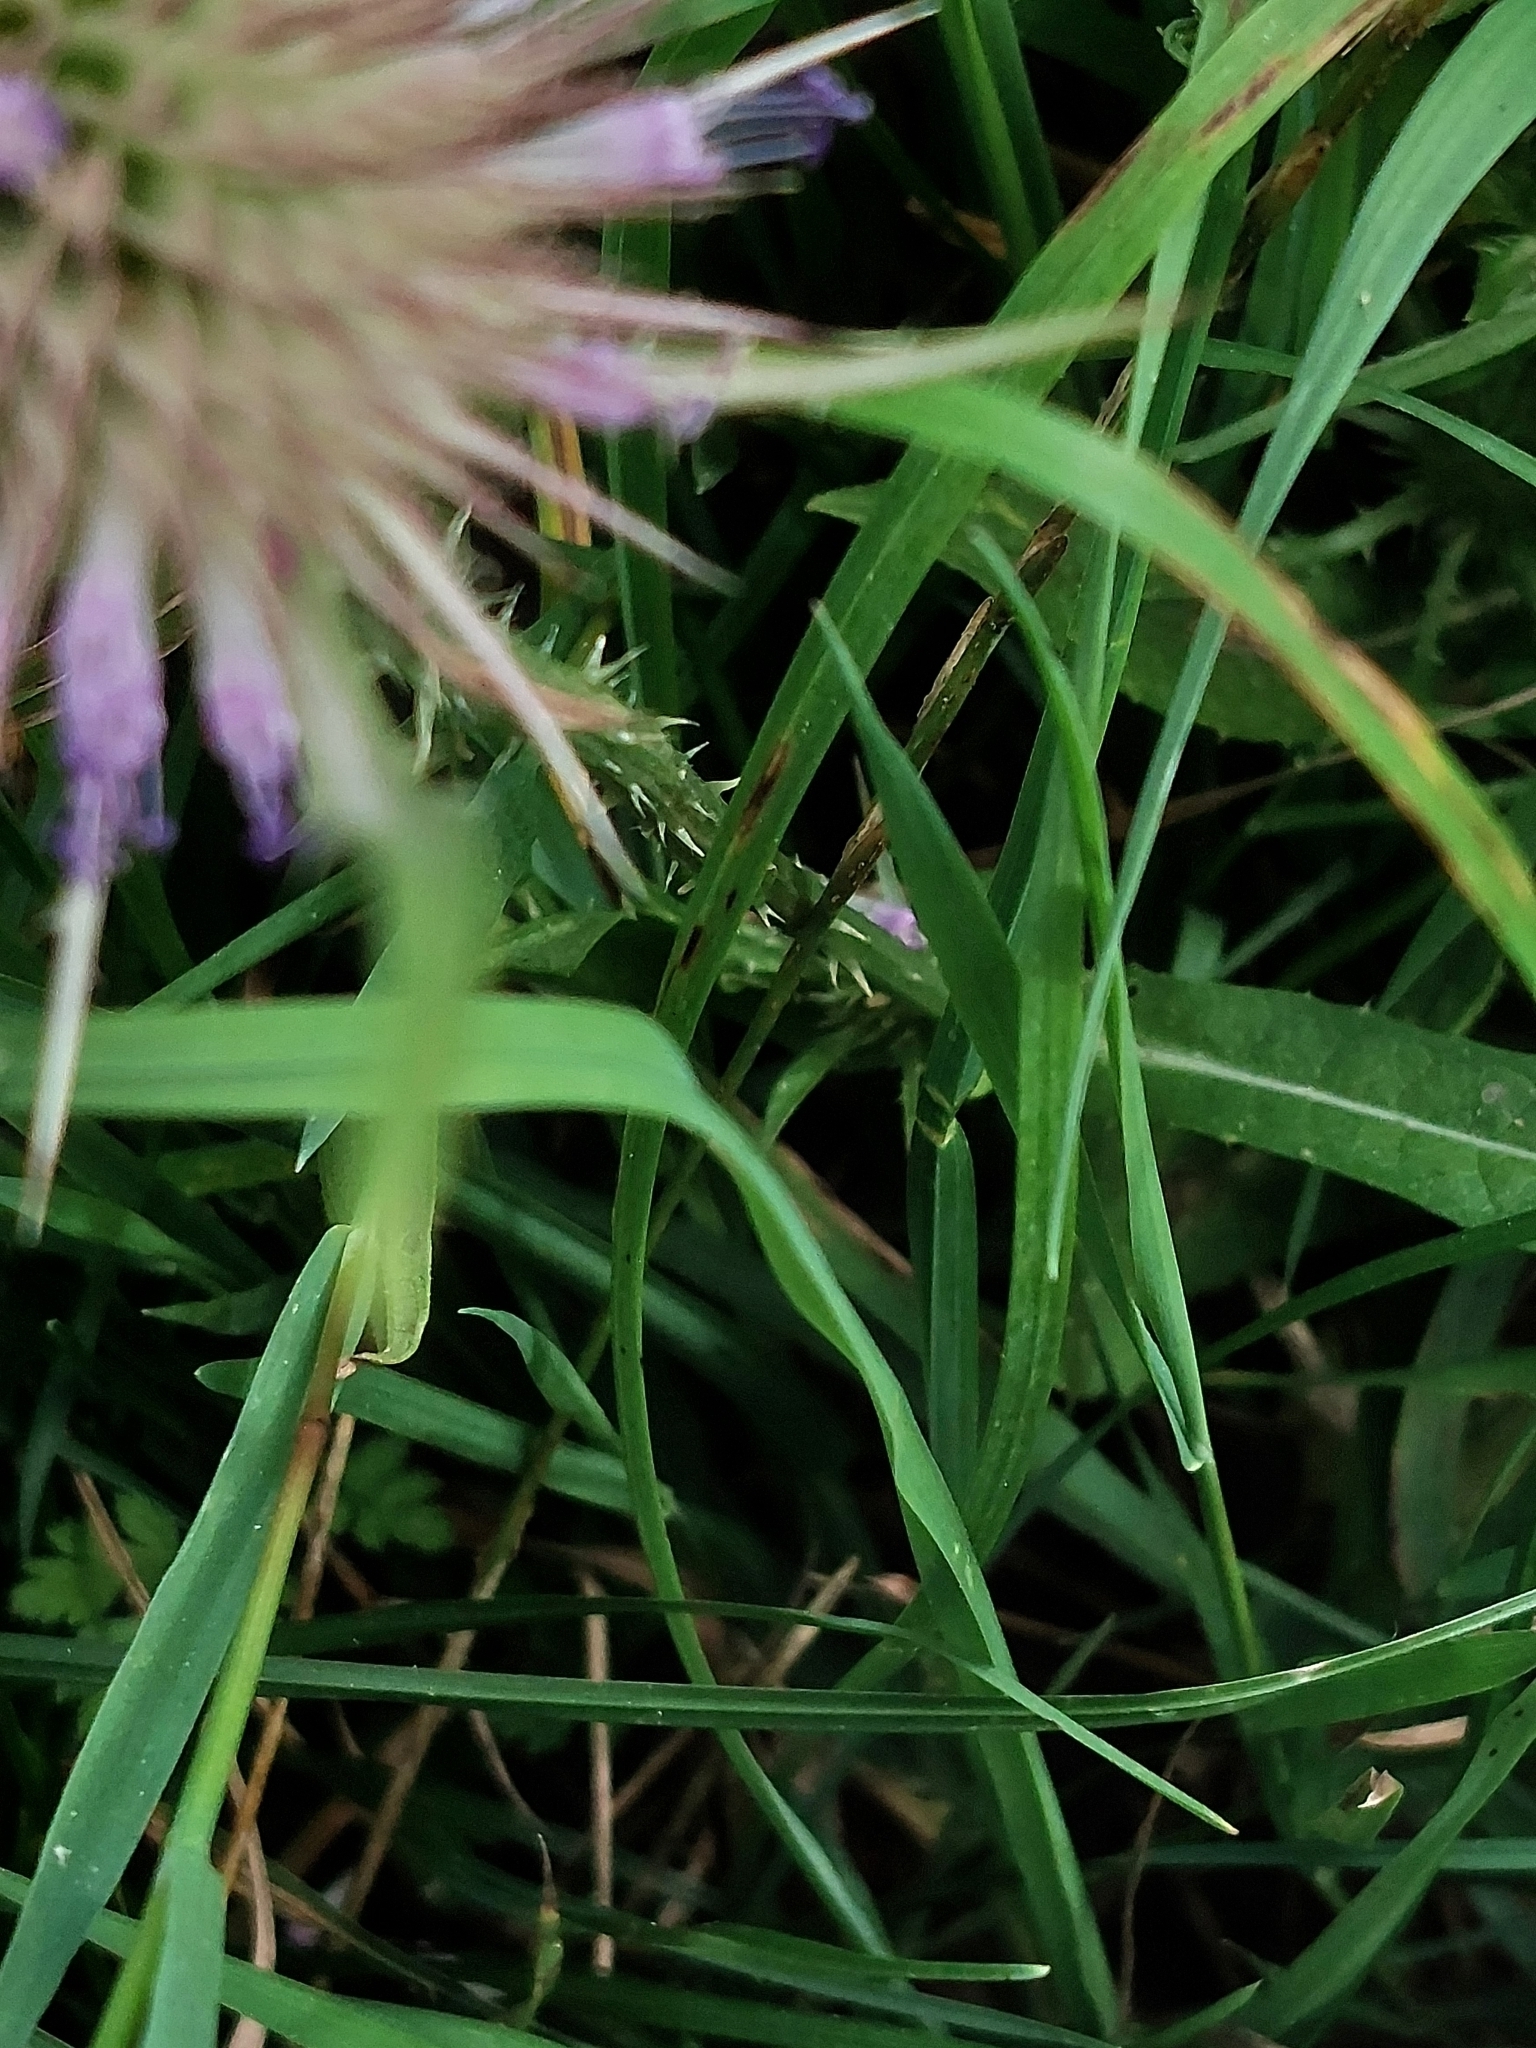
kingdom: Plantae
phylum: Tracheophyta
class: Magnoliopsida
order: Dipsacales
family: Caprifoliaceae
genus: Dipsacus
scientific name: Dipsacus fullonum
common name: Teasel
